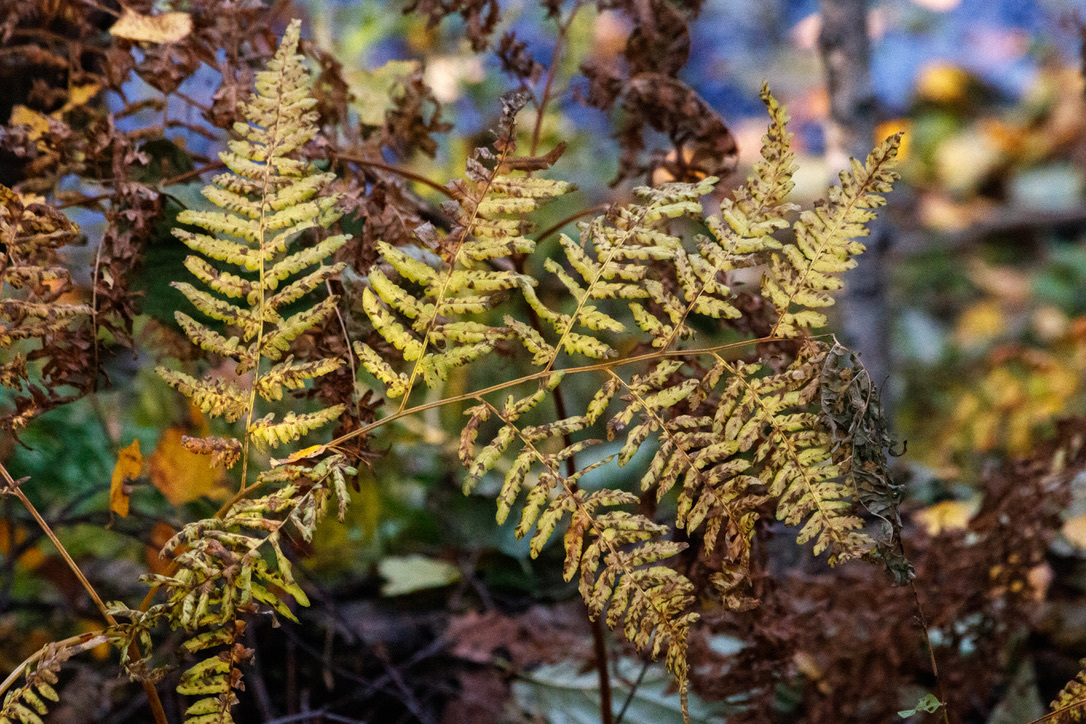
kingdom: Plantae
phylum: Tracheophyta
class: Polypodiopsida
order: Polypodiales
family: Dennstaedtiaceae
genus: Pteridium
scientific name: Pteridium aquilinum
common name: Bracken
